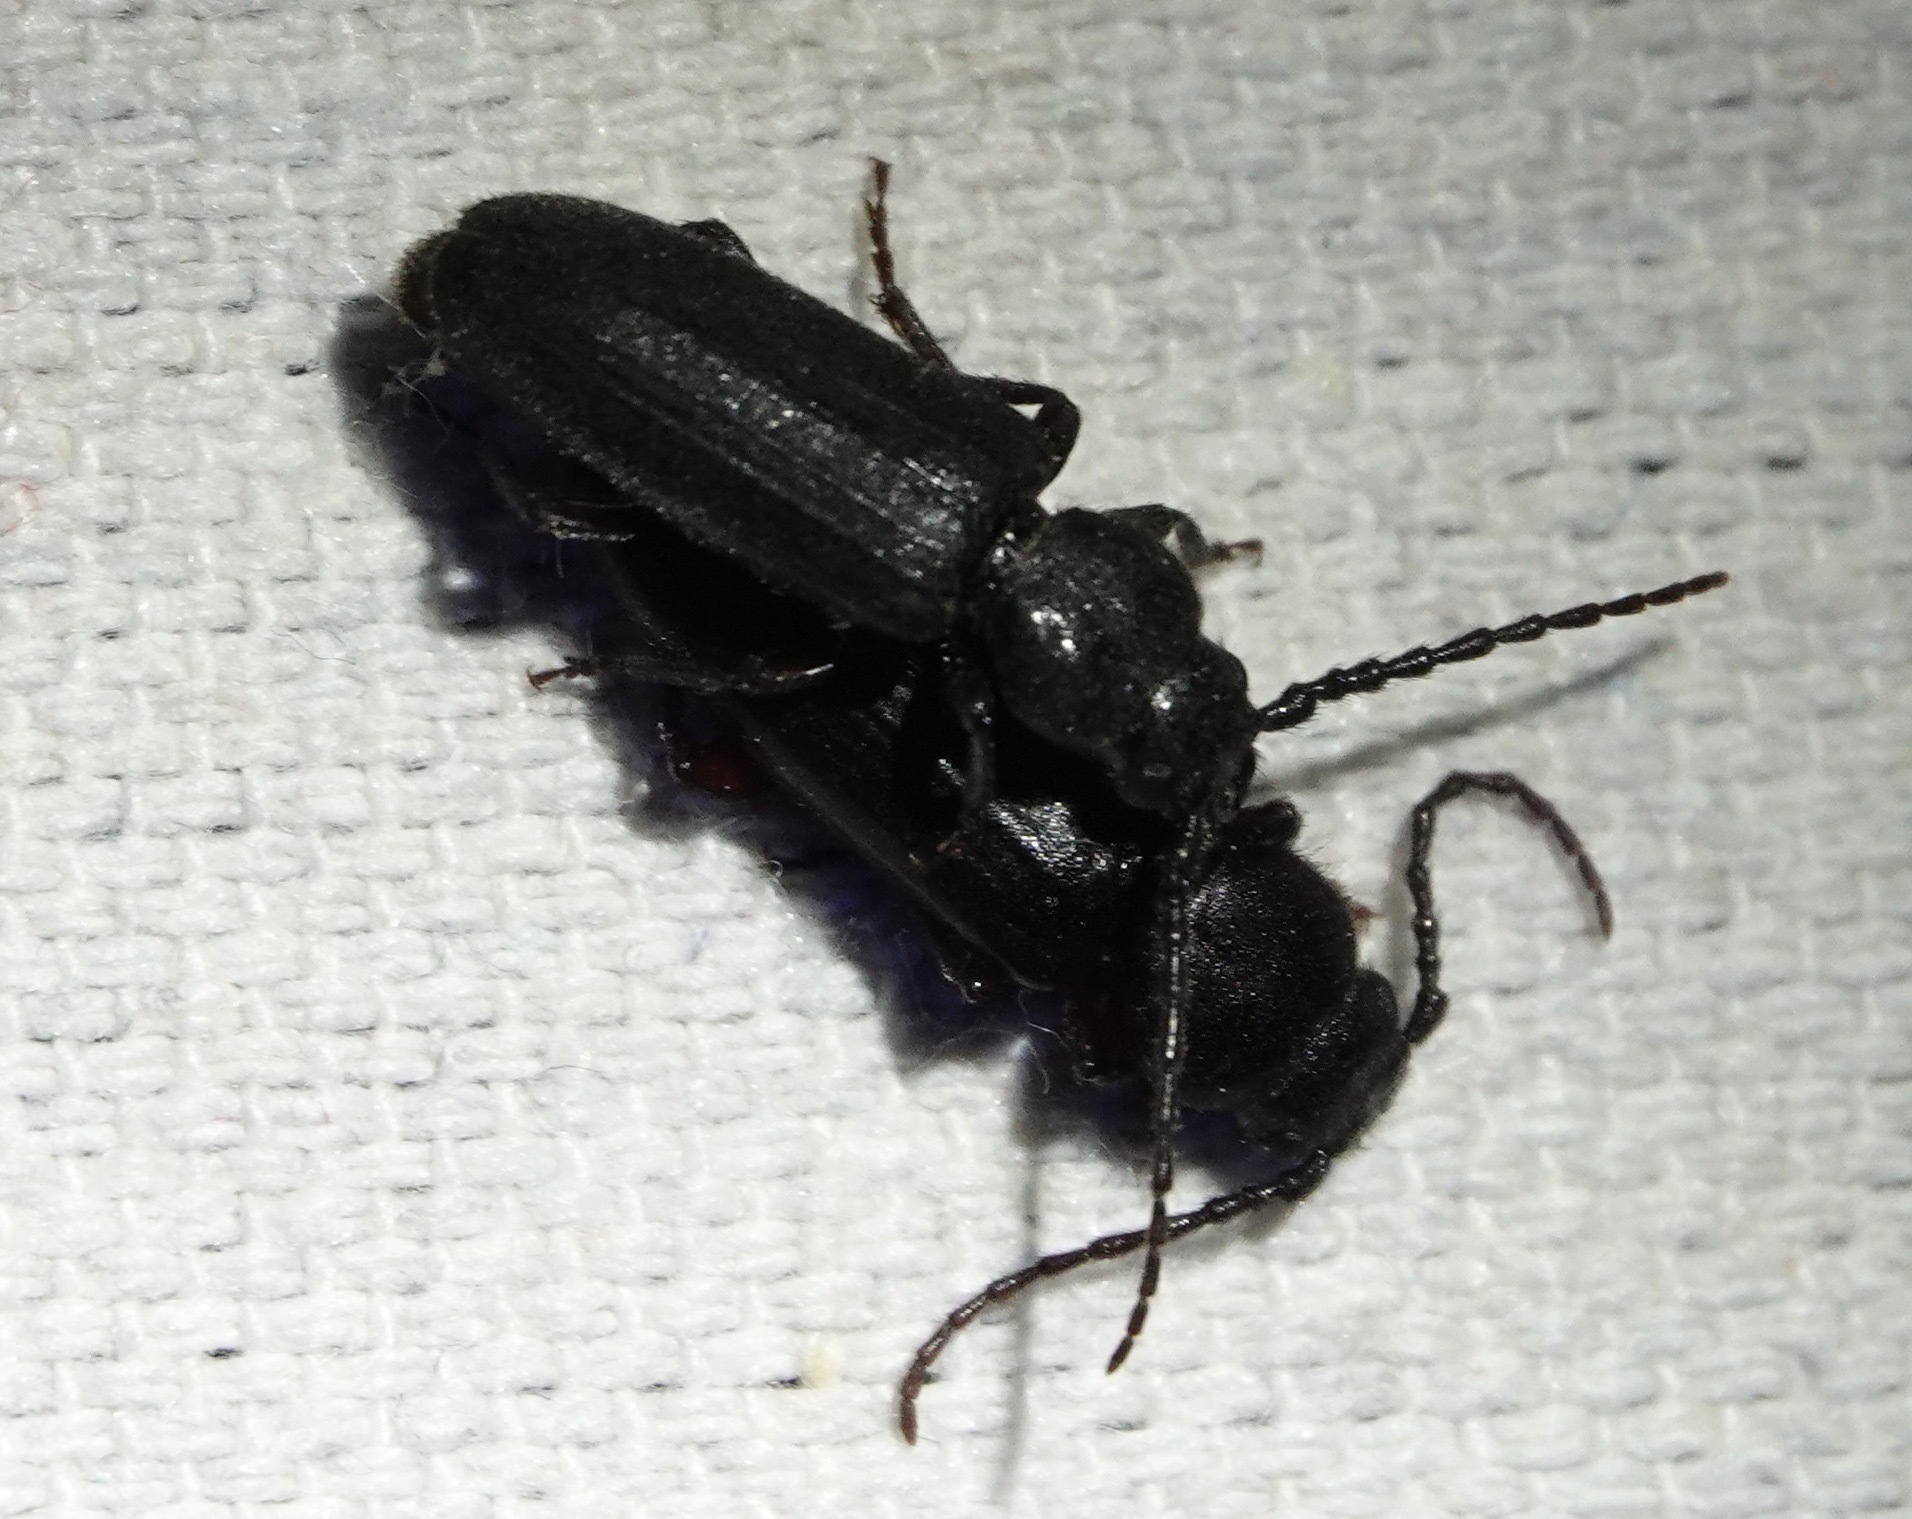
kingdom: Animalia
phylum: Arthropoda
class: Insecta
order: Coleoptera
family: Cerambycidae
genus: Asemum
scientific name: Asemum nitidum
